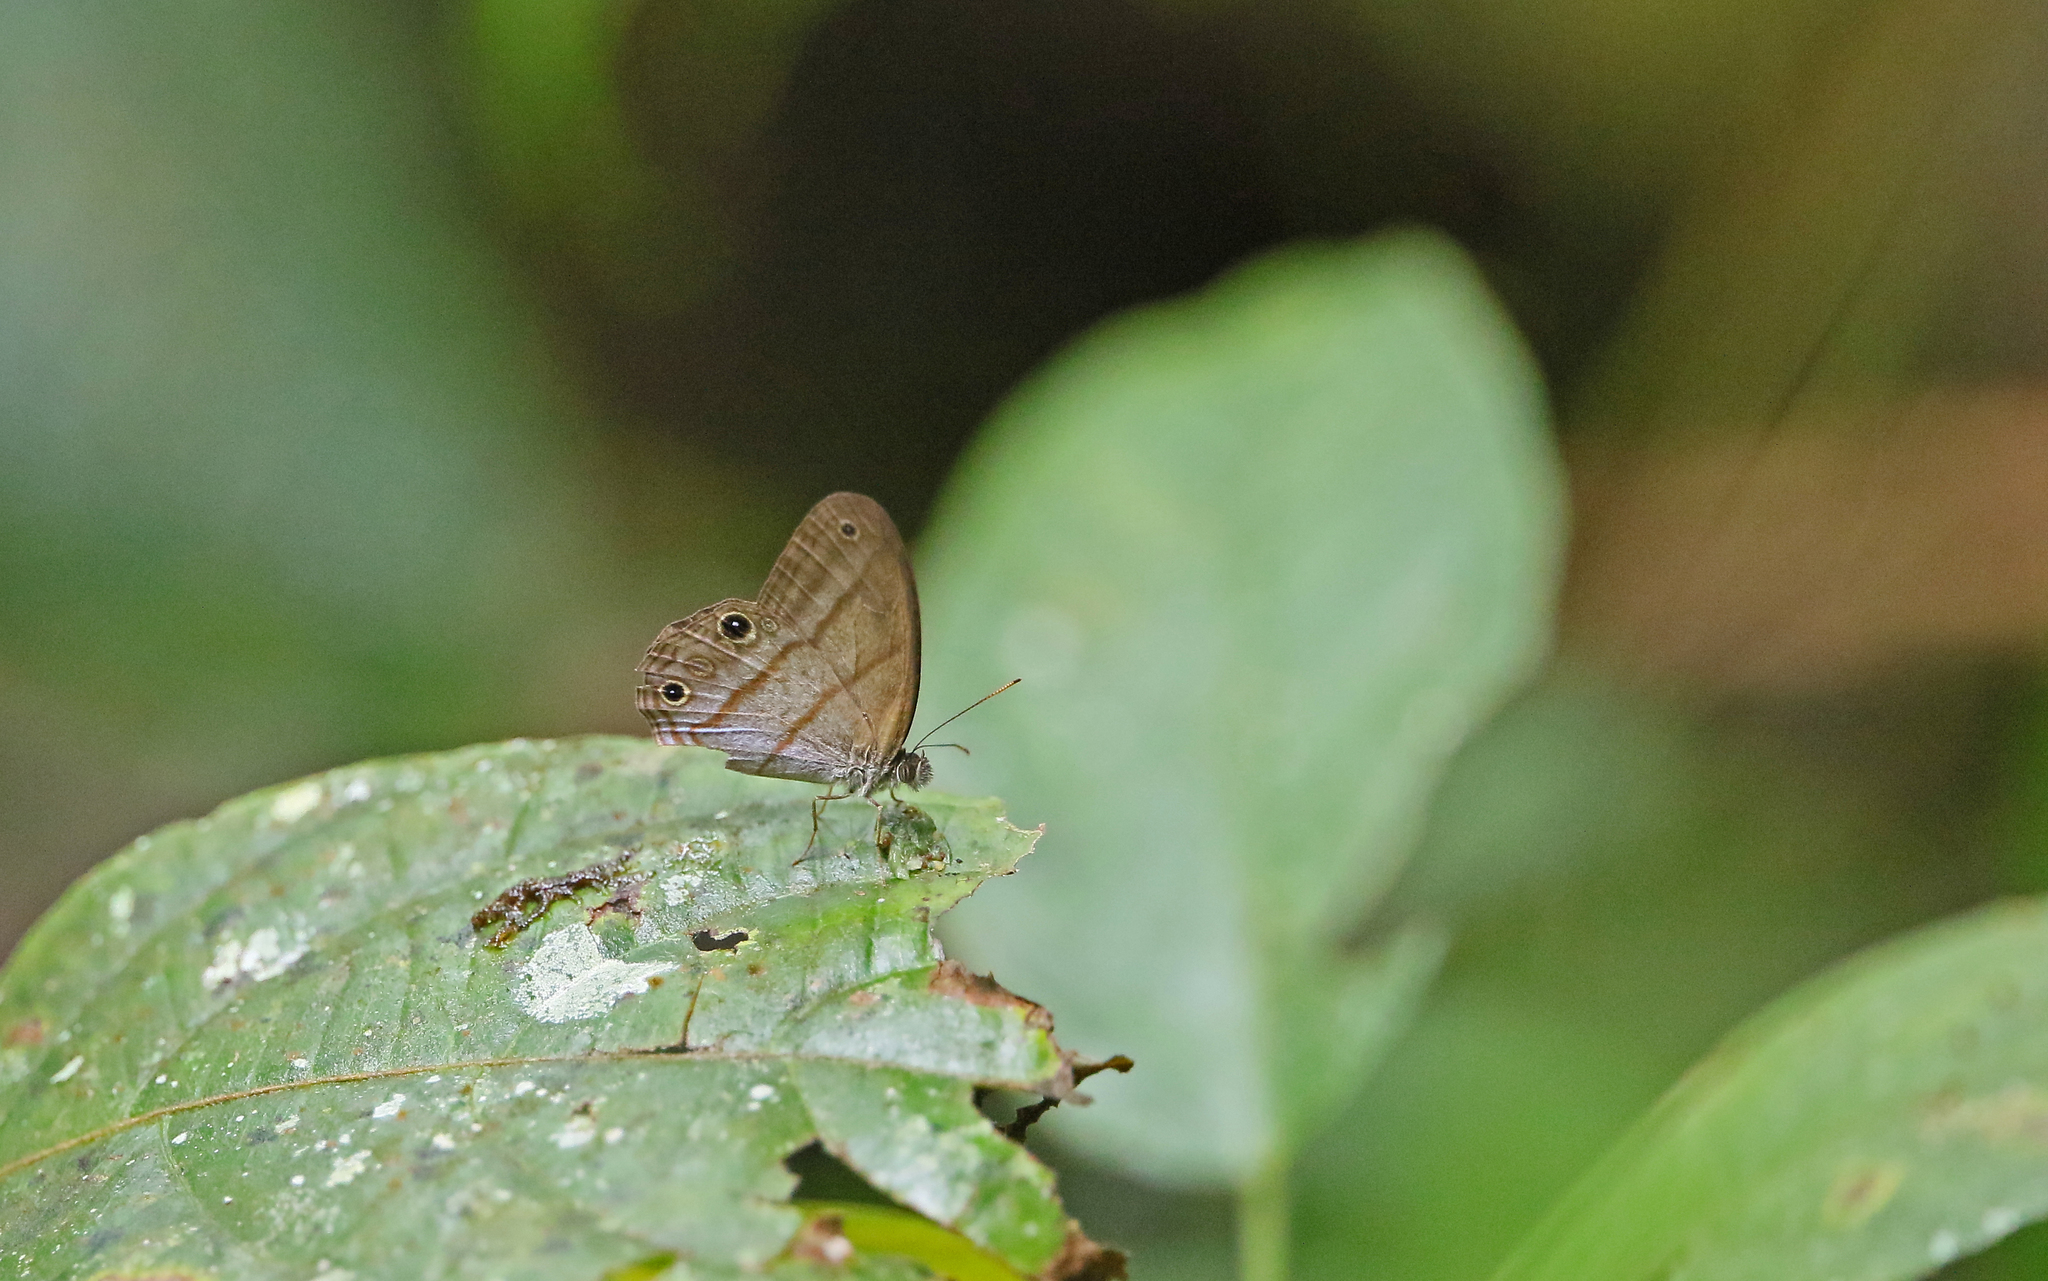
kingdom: Animalia
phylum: Arthropoda
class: Insecta
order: Lepidoptera
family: Nymphalidae
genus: Amiga
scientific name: Amiga arnaca
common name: Blue-topped satyr
